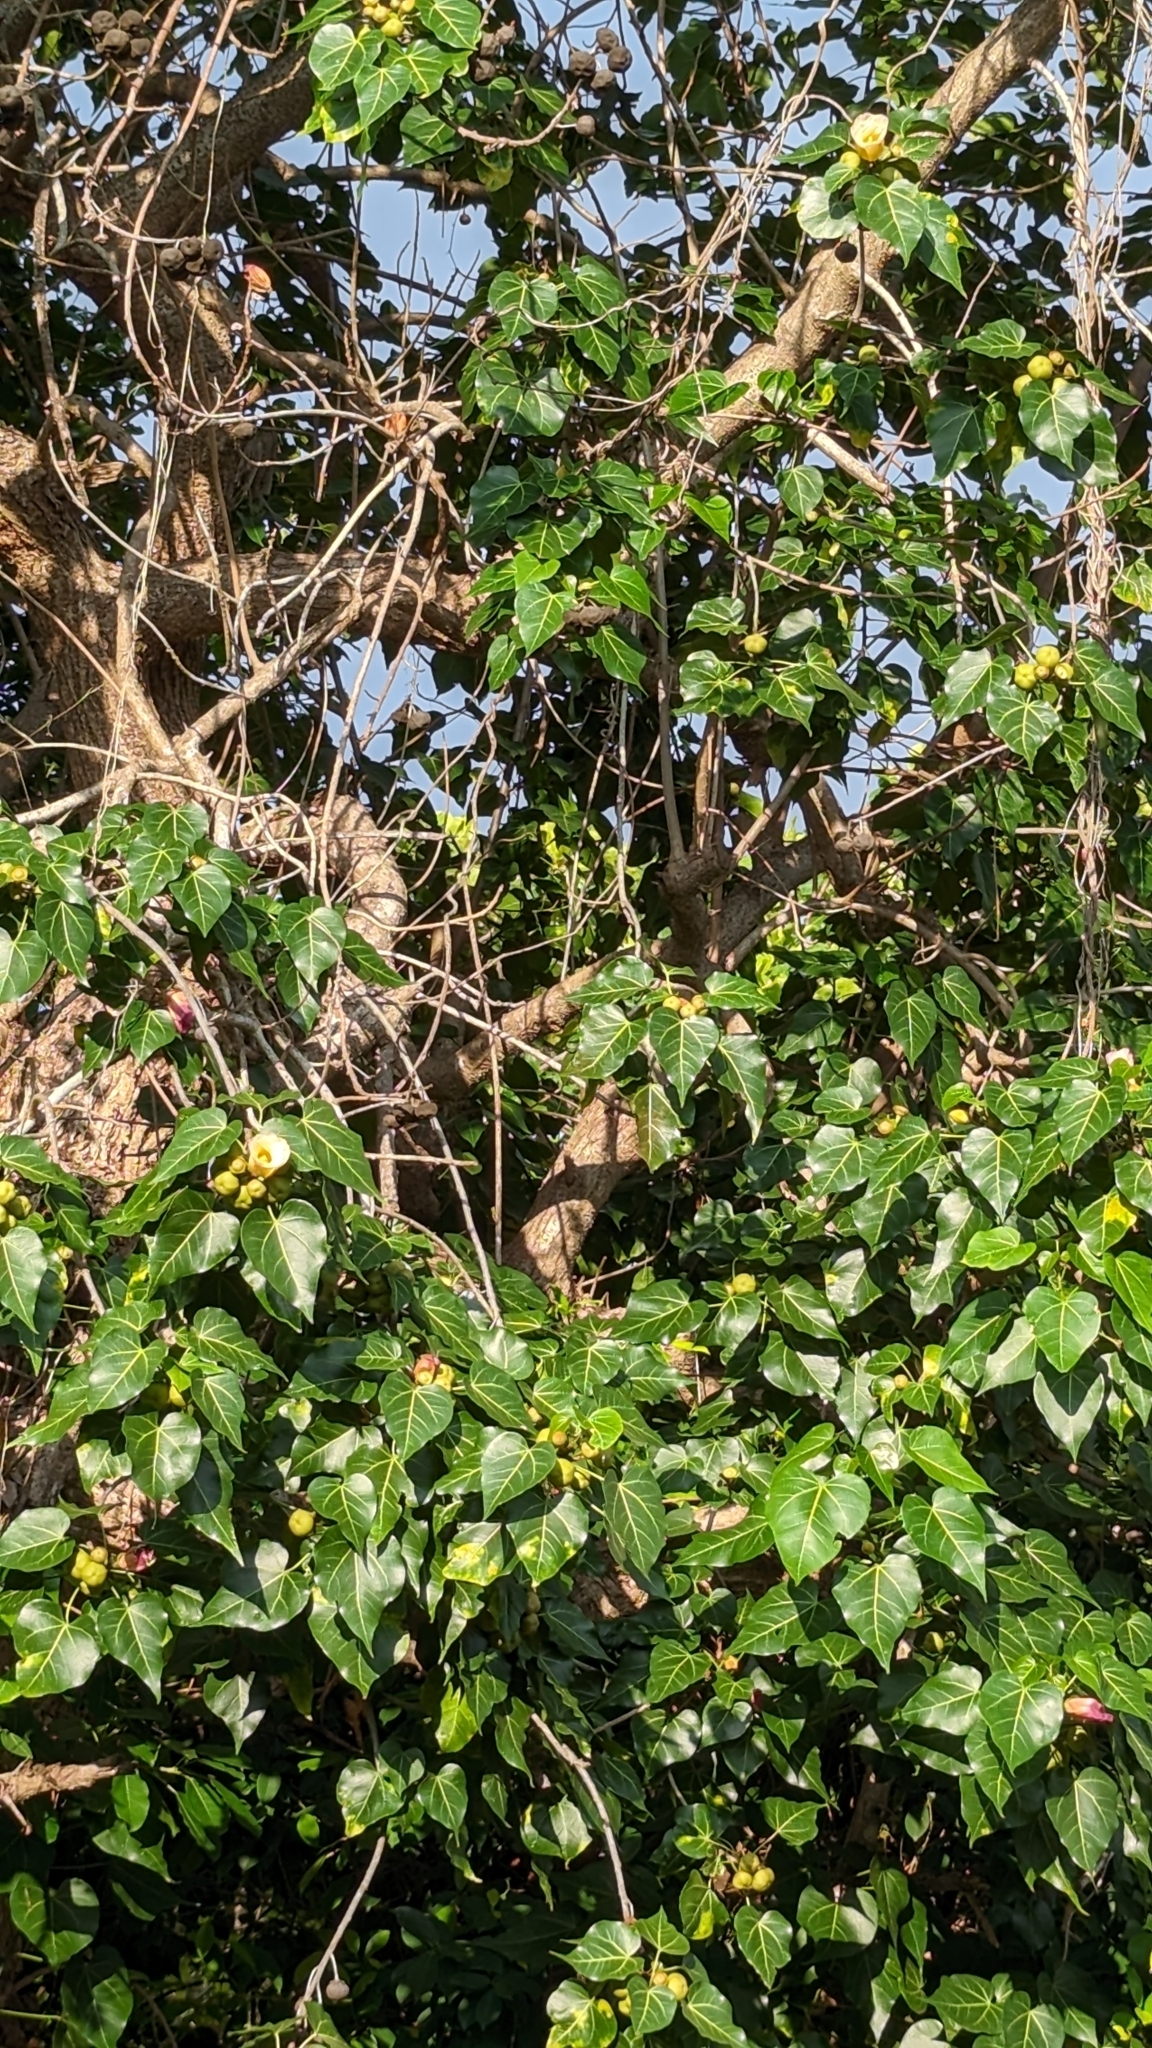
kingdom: Plantae
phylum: Tracheophyta
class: Magnoliopsida
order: Malvales
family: Malvaceae
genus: Thespesia
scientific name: Thespesia populnea
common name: Seaside mahoe
